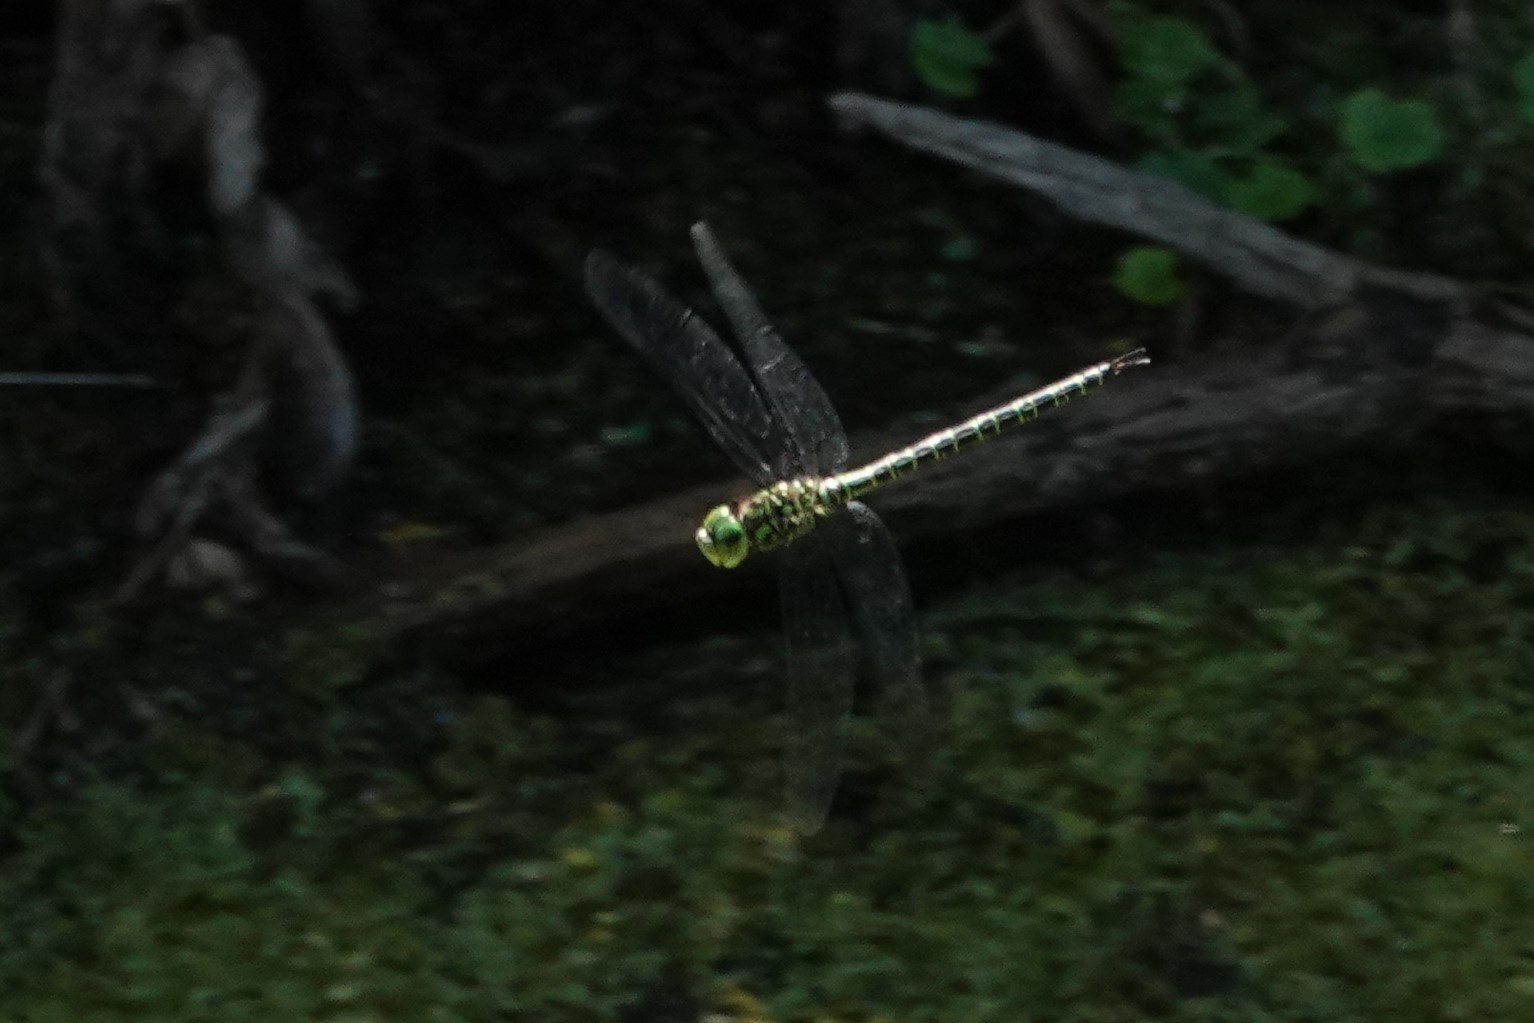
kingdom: Animalia
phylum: Arthropoda
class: Insecta
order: Odonata
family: Aeshnidae
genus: Coryphaeschna
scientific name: Coryphaeschna ingens
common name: Regal darner
